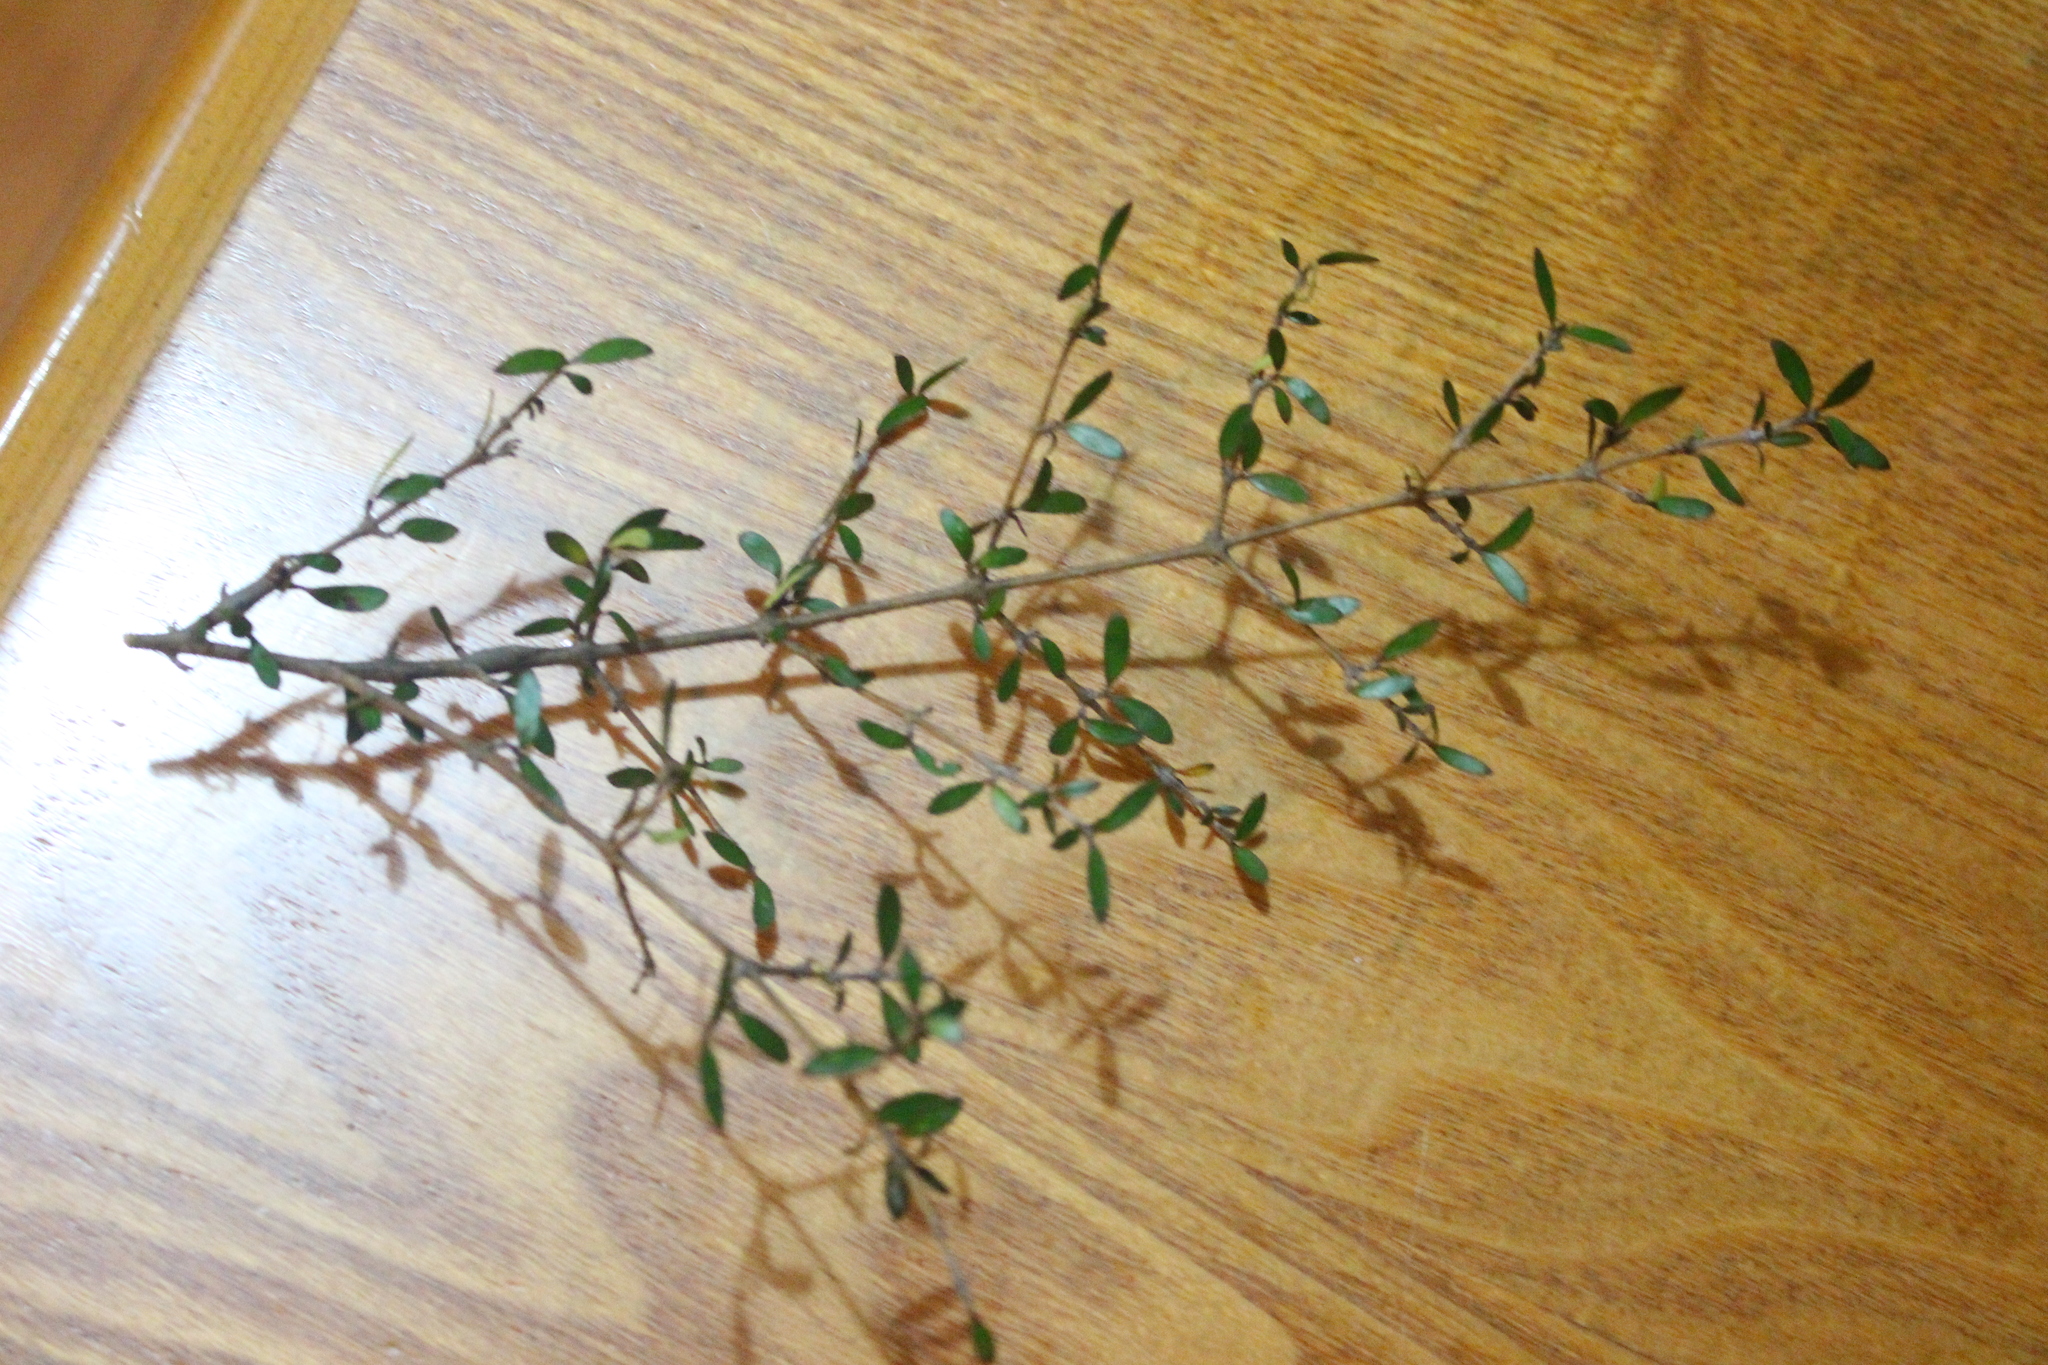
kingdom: Plantae
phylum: Tracheophyta
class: Magnoliopsida
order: Gentianales
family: Rubiaceae
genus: Coprosma
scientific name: Coprosma propinqua
